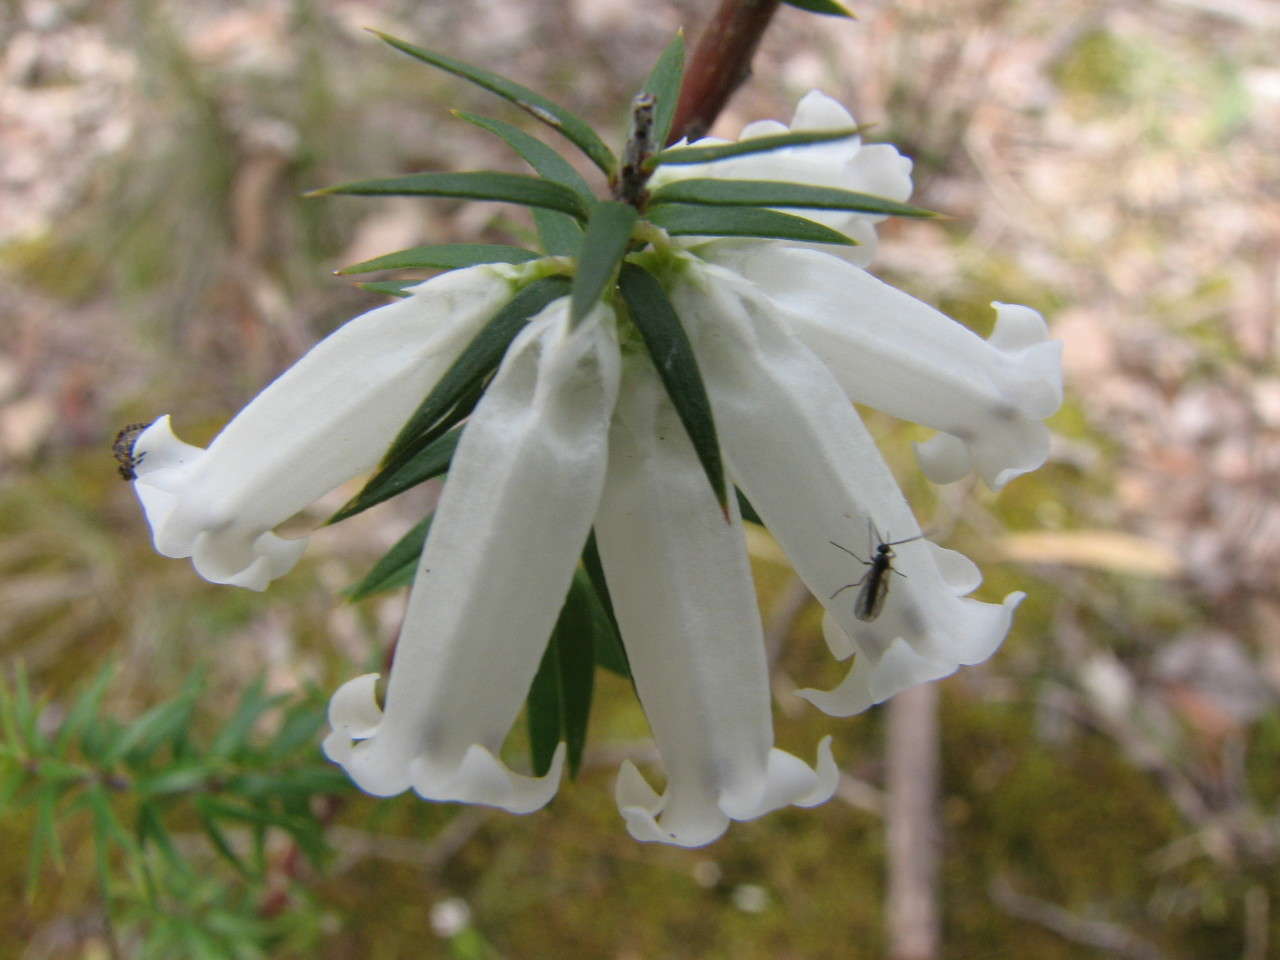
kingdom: Plantae
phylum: Tracheophyta
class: Magnoliopsida
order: Ericales
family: Ericaceae
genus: Epacris
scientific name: Epacris impressa
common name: Common-heath
